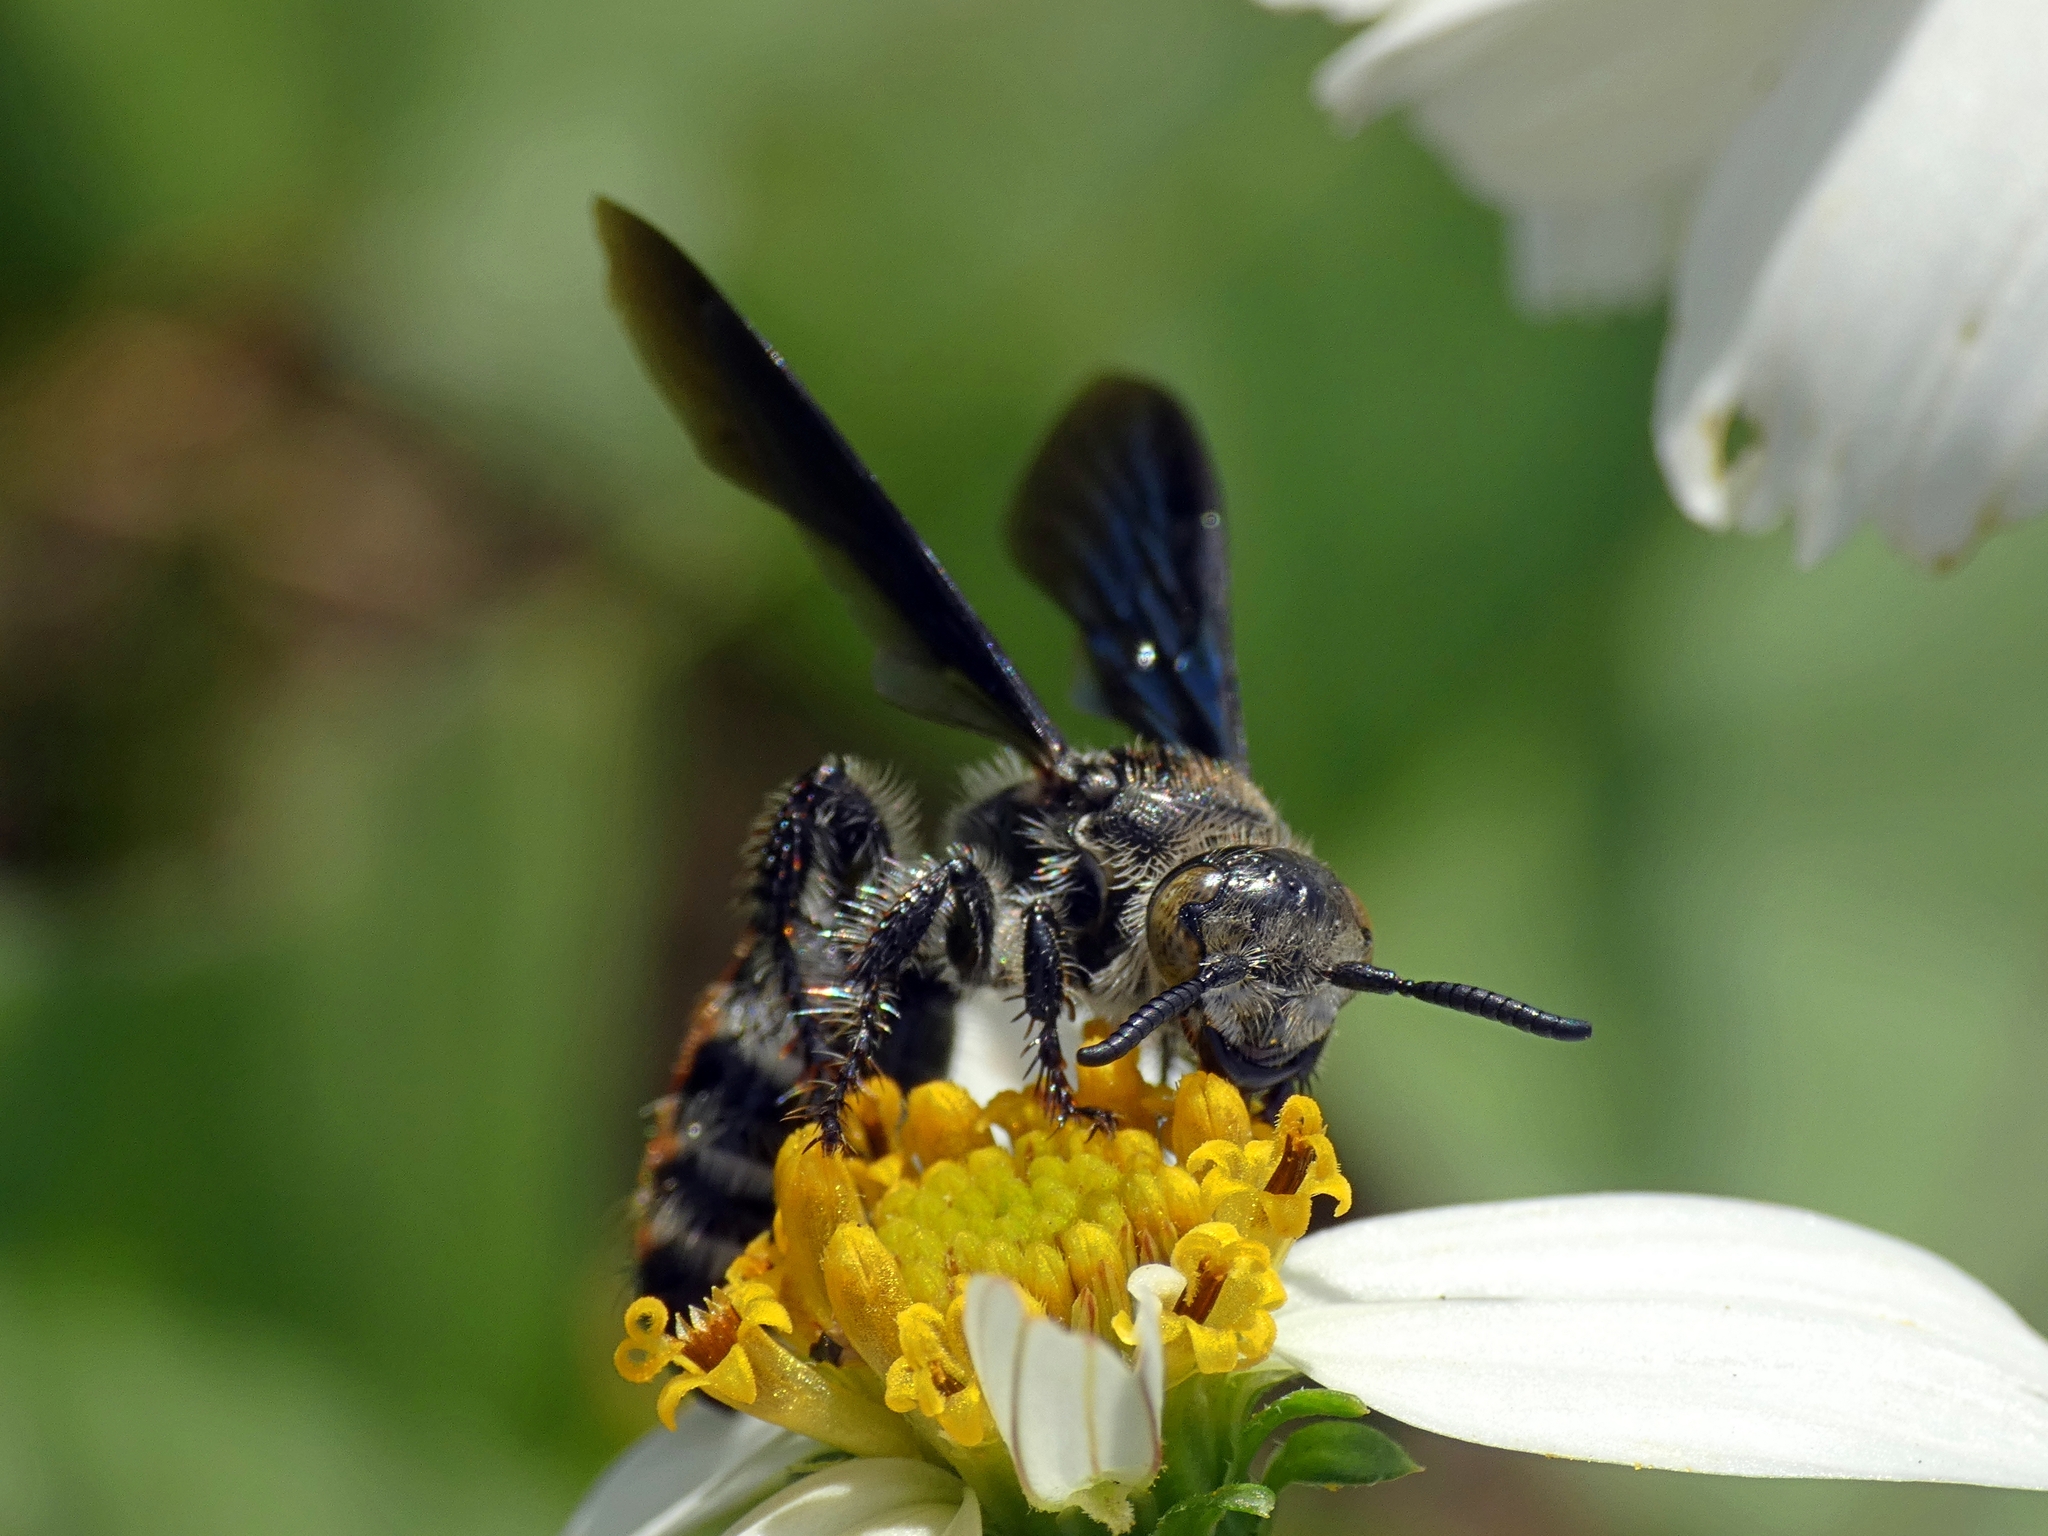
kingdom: Animalia
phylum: Arthropoda
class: Insecta
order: Hymenoptera
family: Scoliidae
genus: Dielis
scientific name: Dielis dorsata
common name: Scoliid wasp
